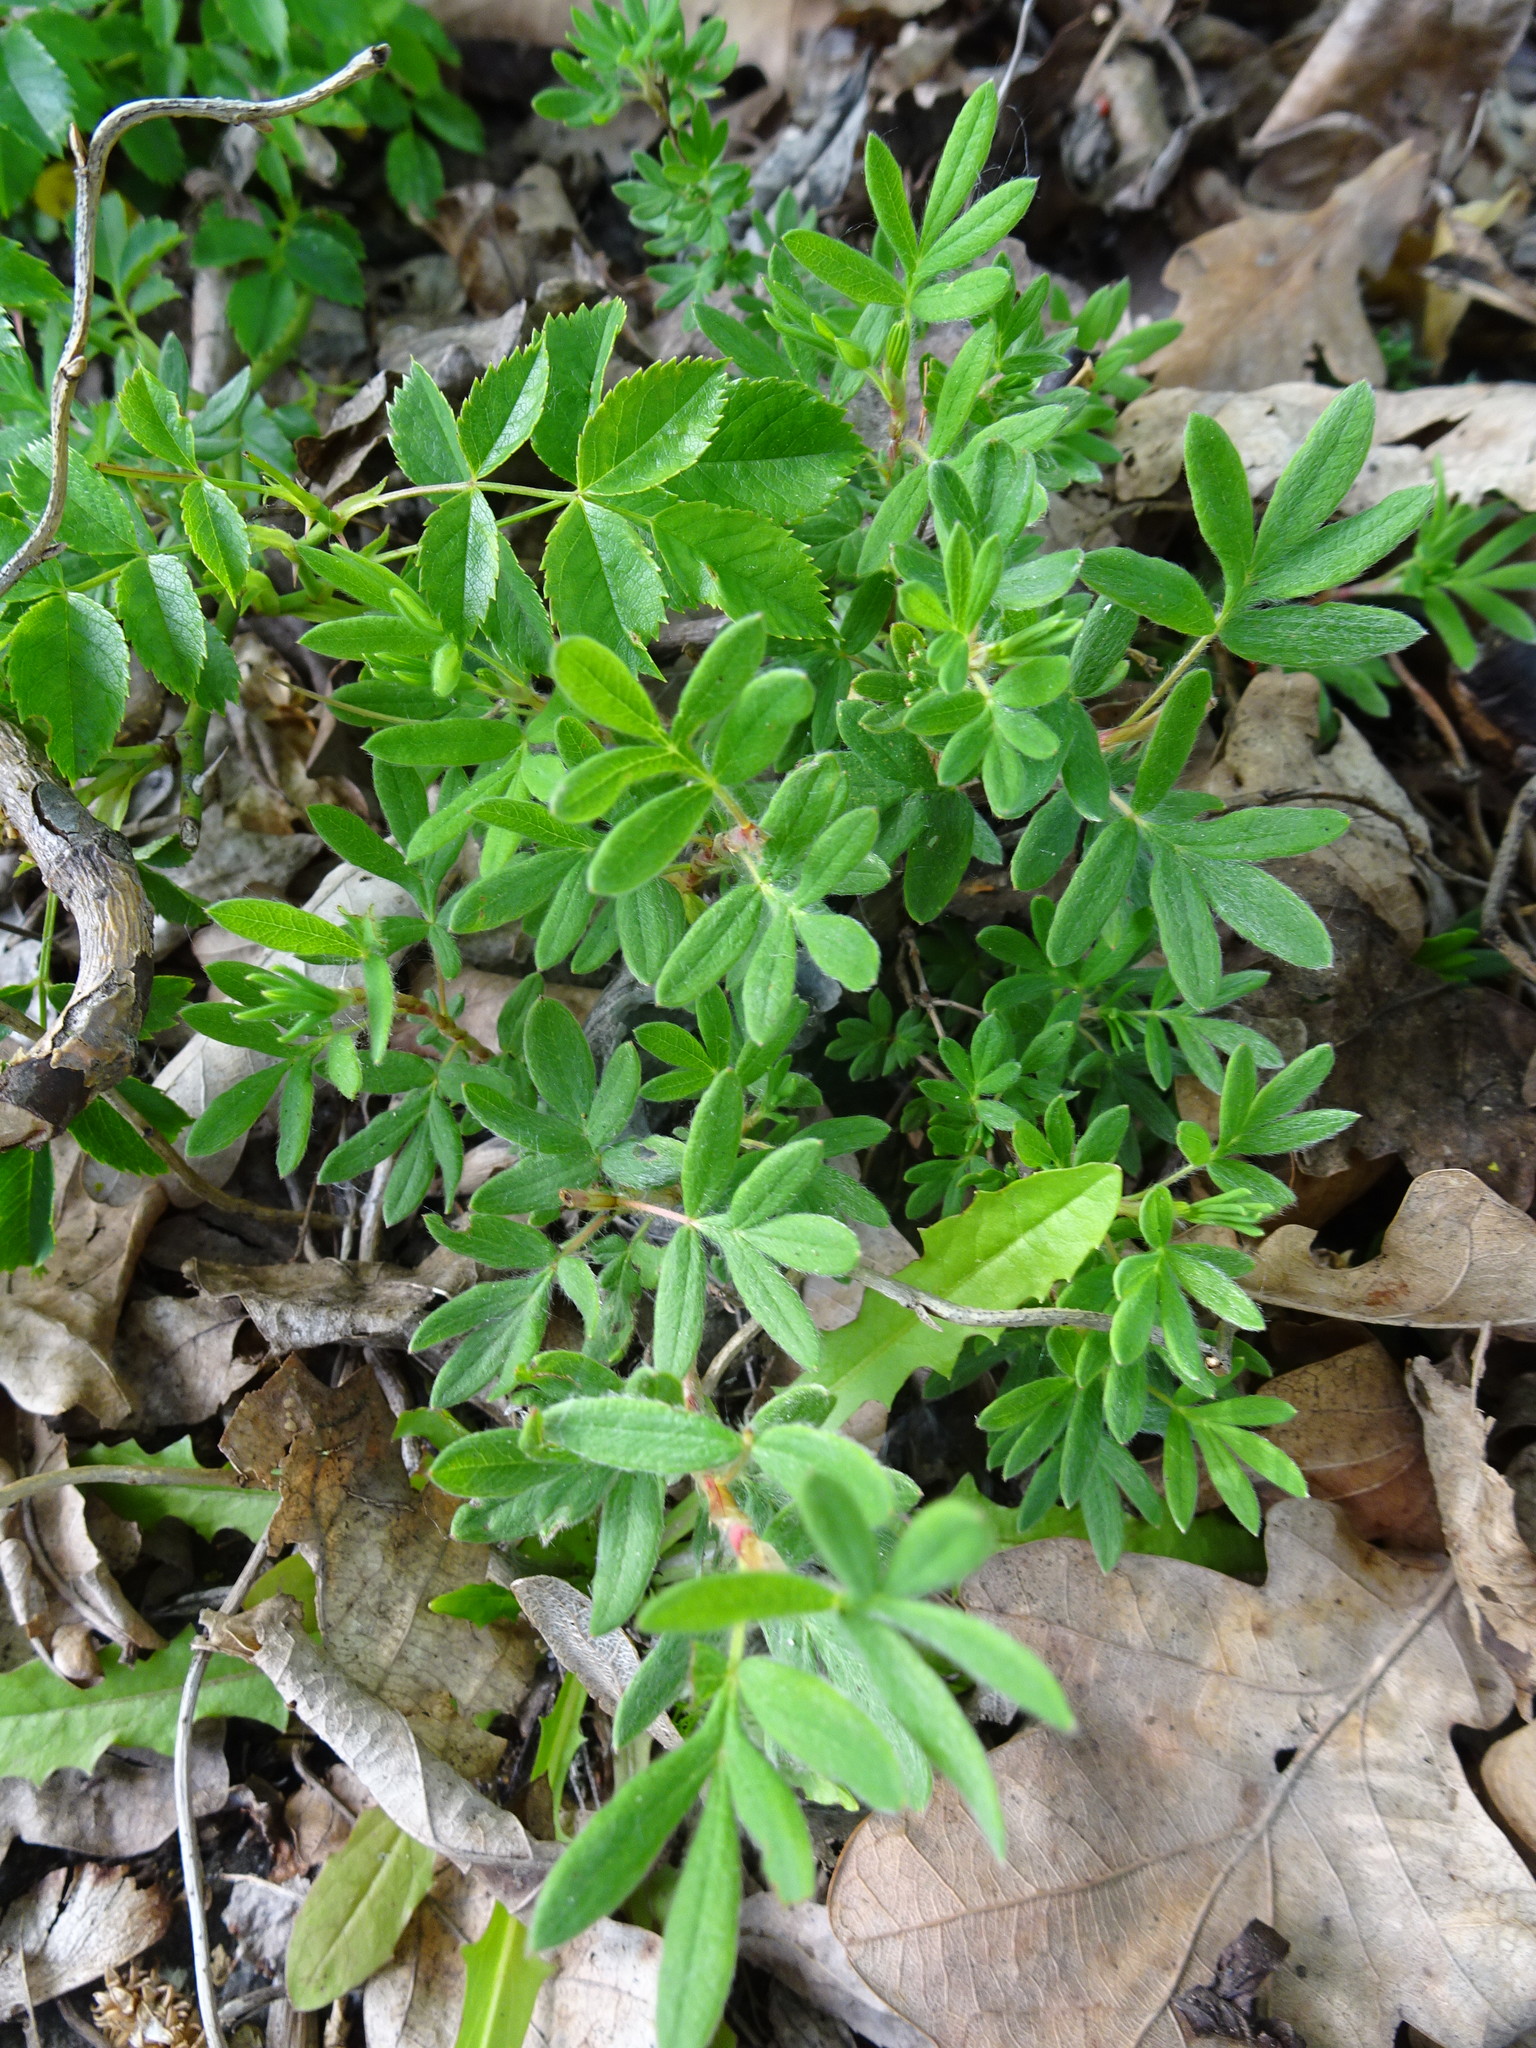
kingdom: Plantae
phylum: Tracheophyta
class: Magnoliopsida
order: Rosales
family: Rosaceae
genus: Dasiphora
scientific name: Dasiphora fruticosa
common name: Shrubby cinquefoil
